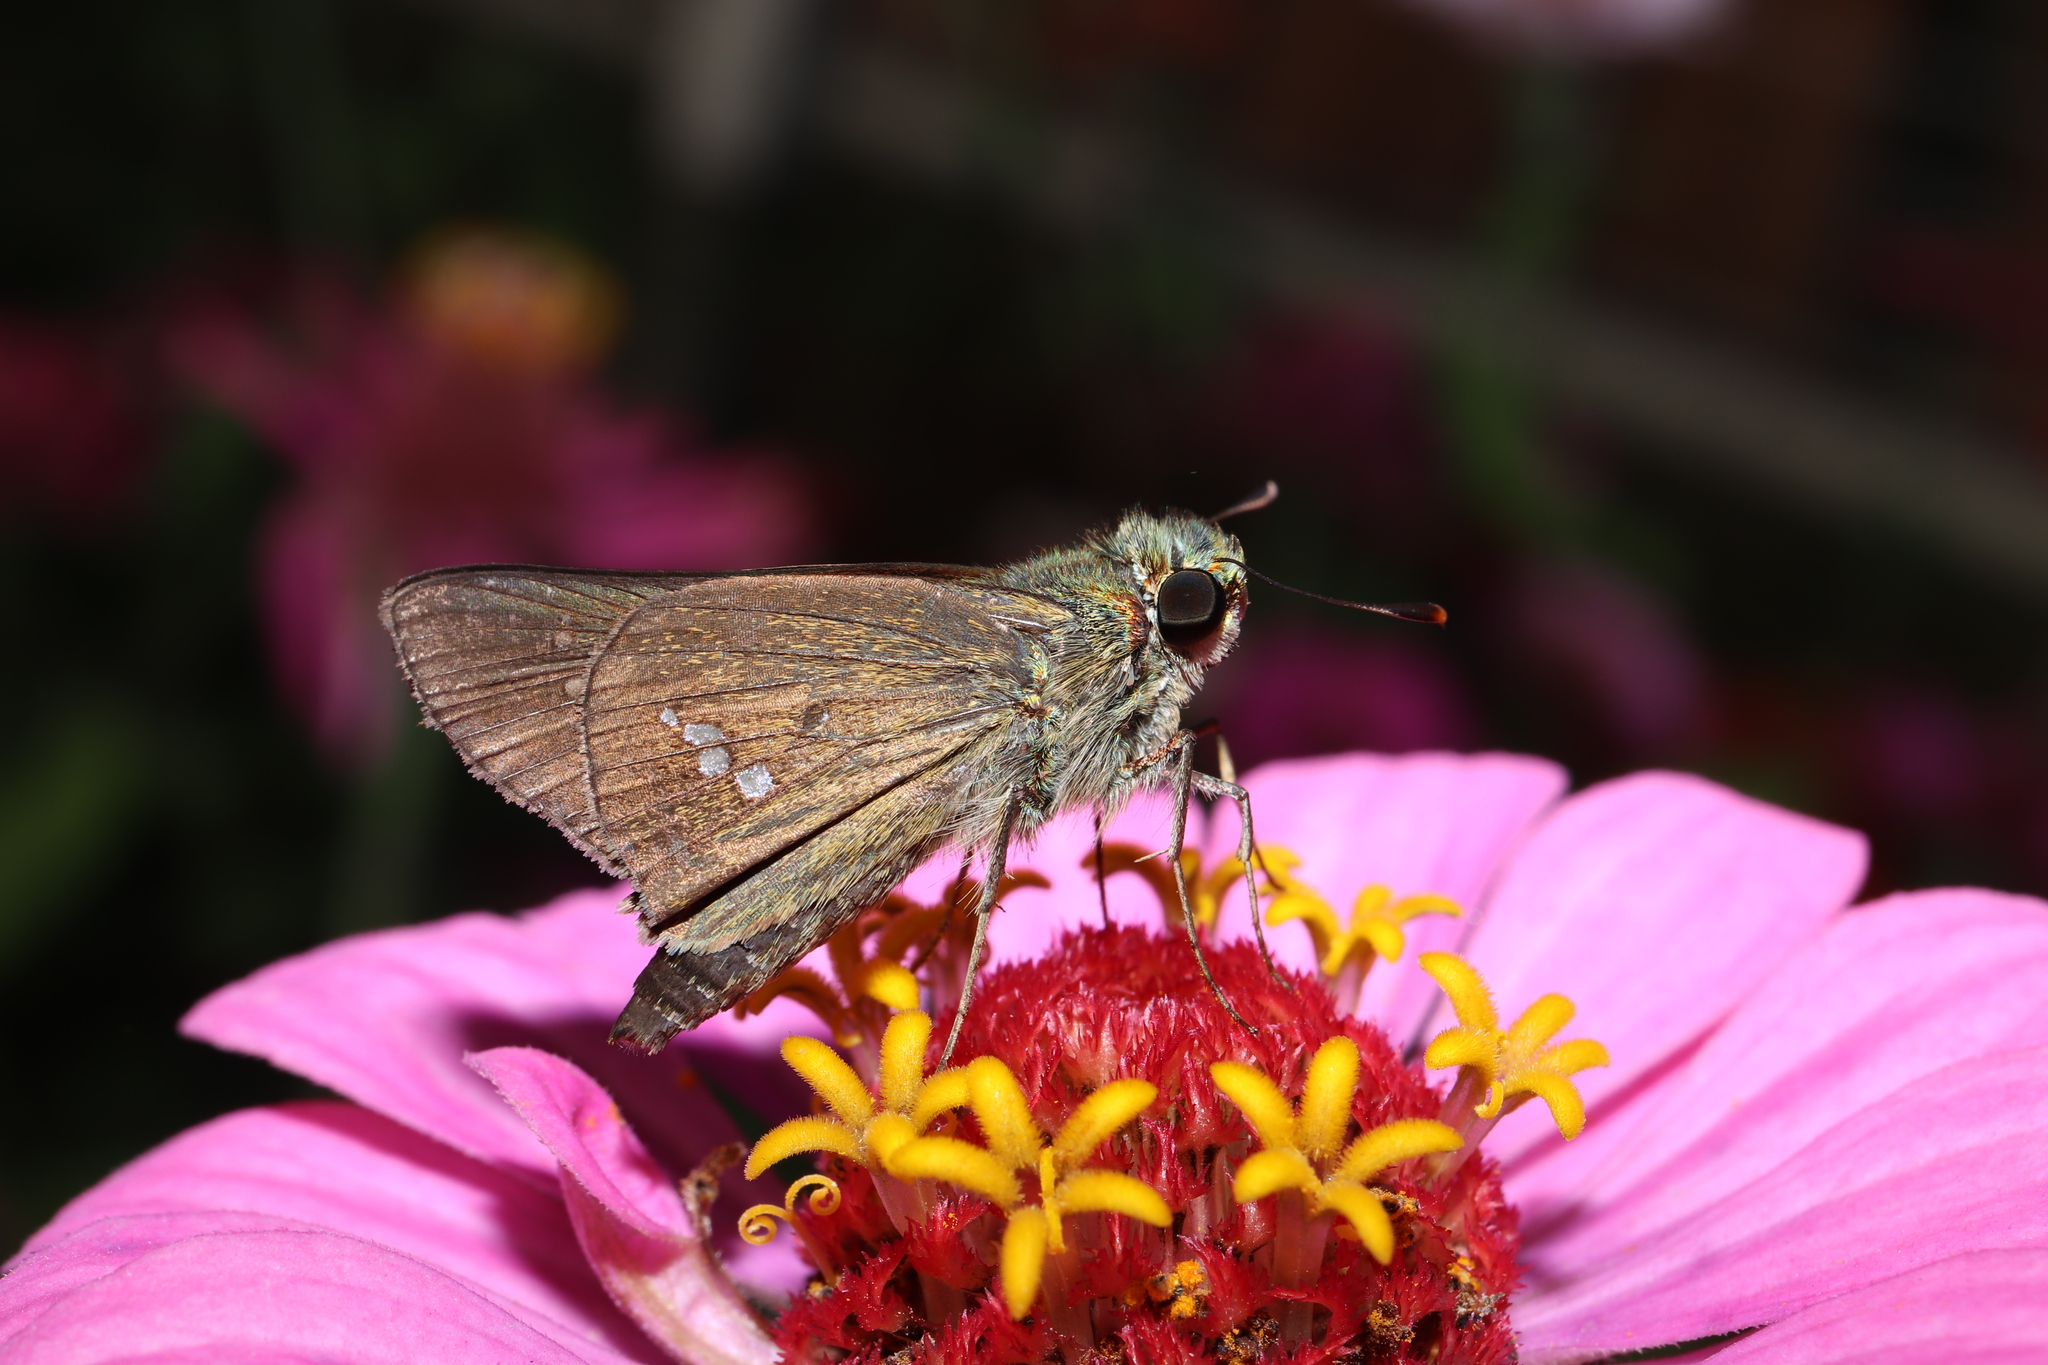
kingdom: Animalia
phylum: Arthropoda
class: Insecta
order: Lepidoptera
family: Hesperiidae
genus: Parnara
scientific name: Parnara guttatus
